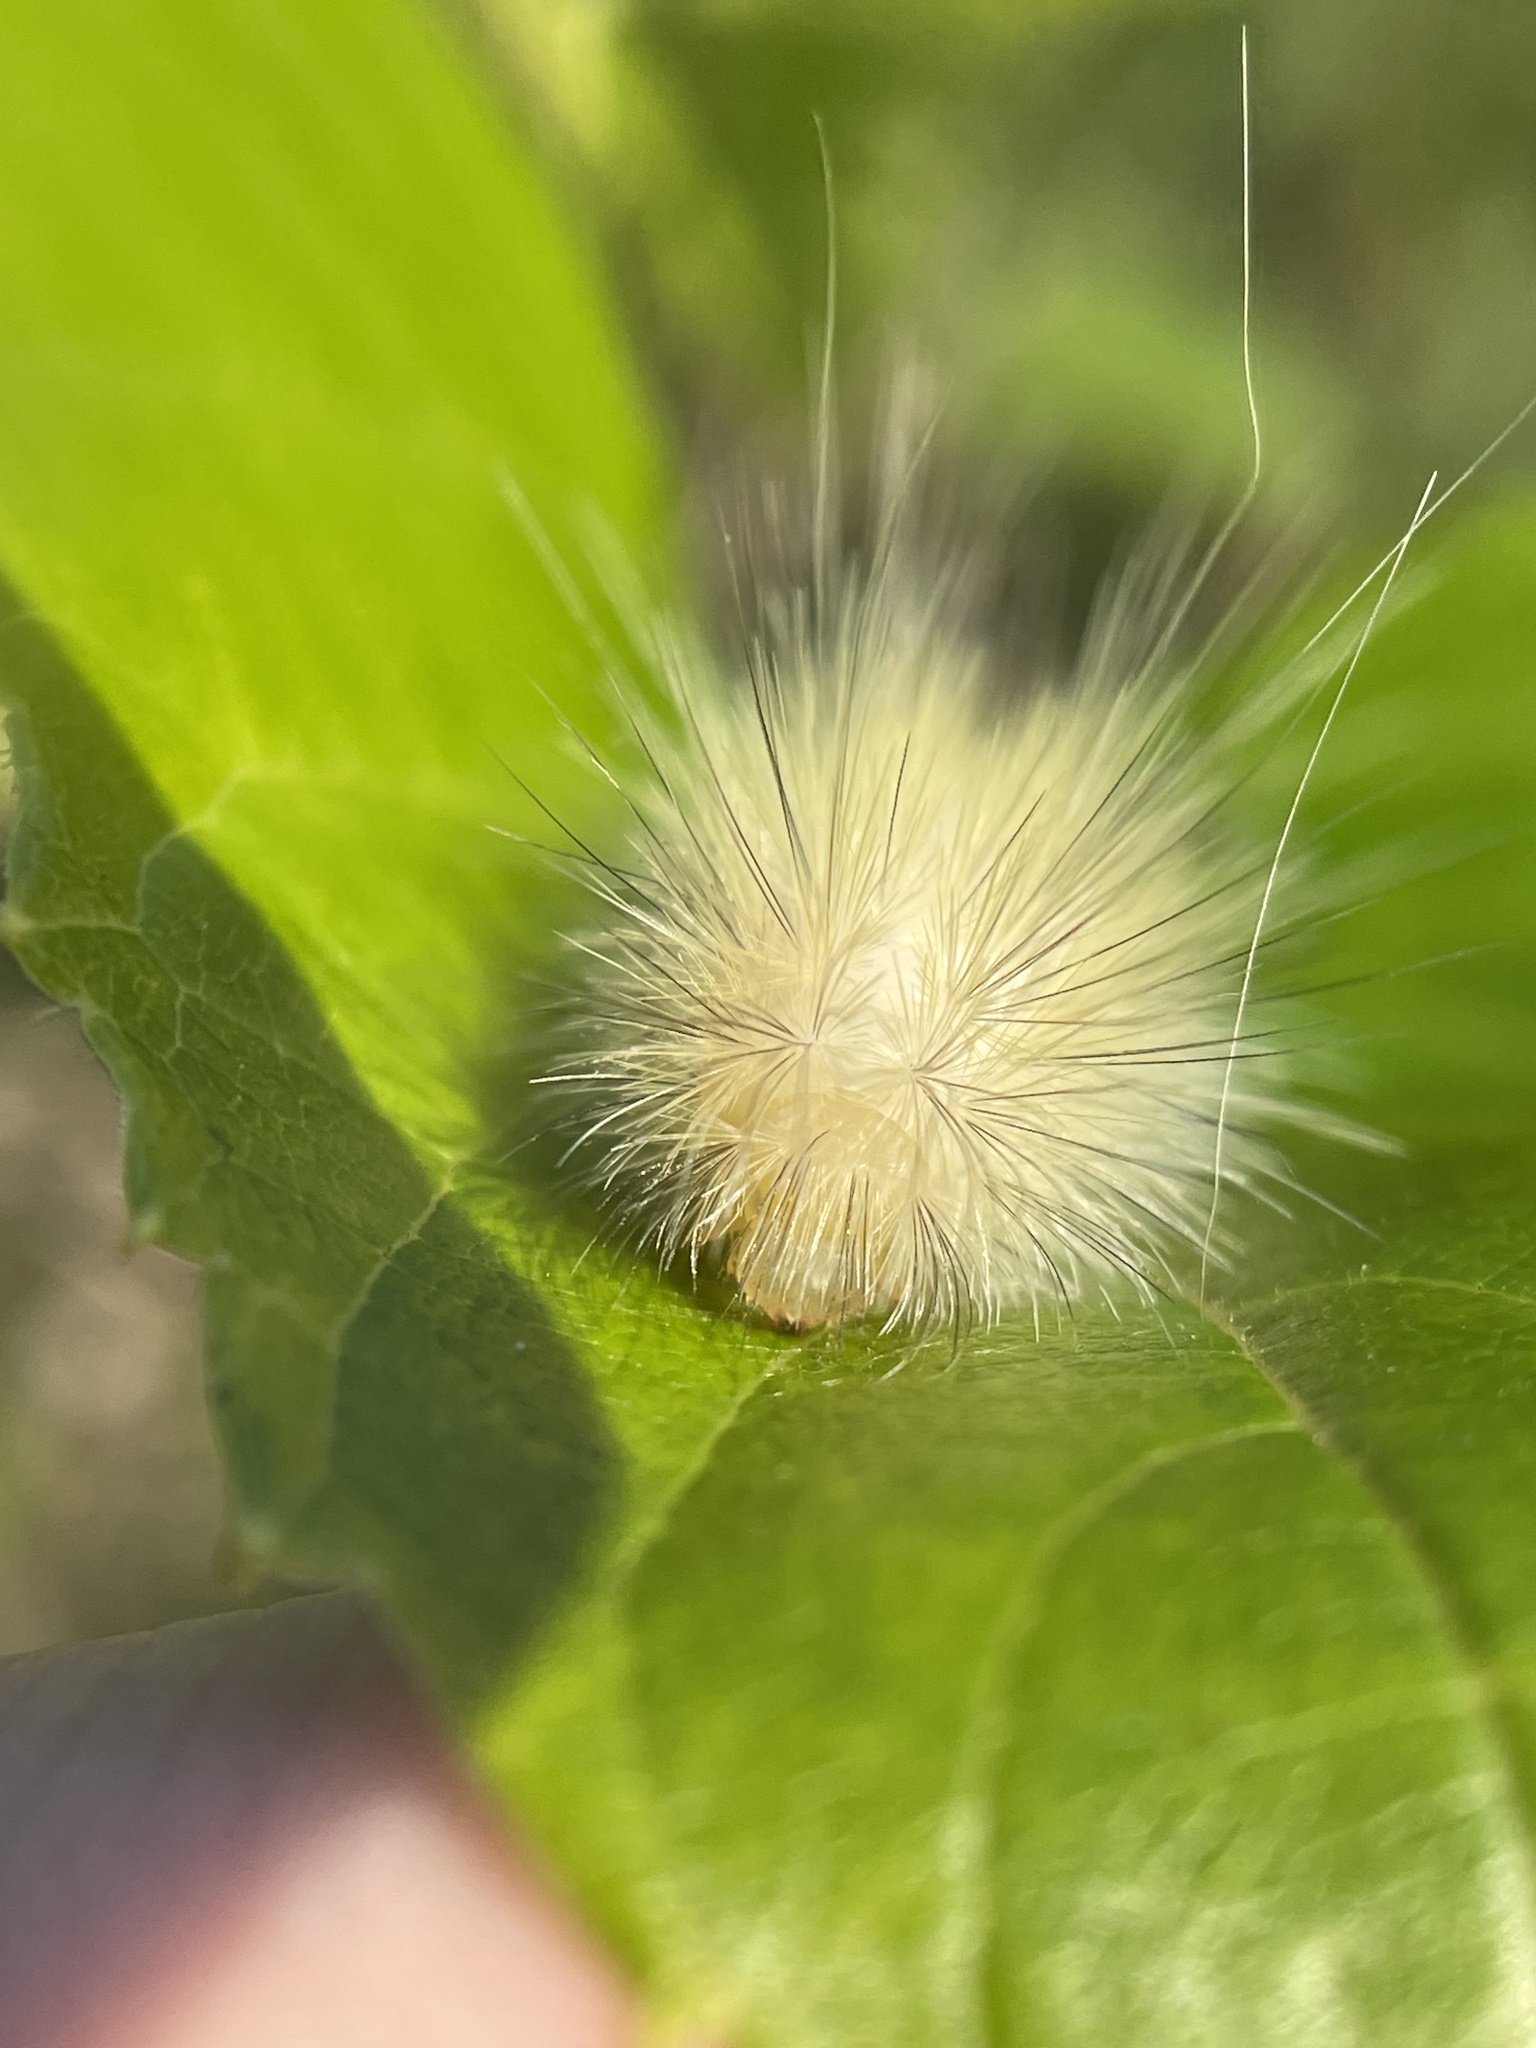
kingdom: Animalia
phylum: Arthropoda
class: Insecta
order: Lepidoptera
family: Erebidae
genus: Spilosoma
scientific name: Spilosoma virginica
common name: Virginia tiger moth
